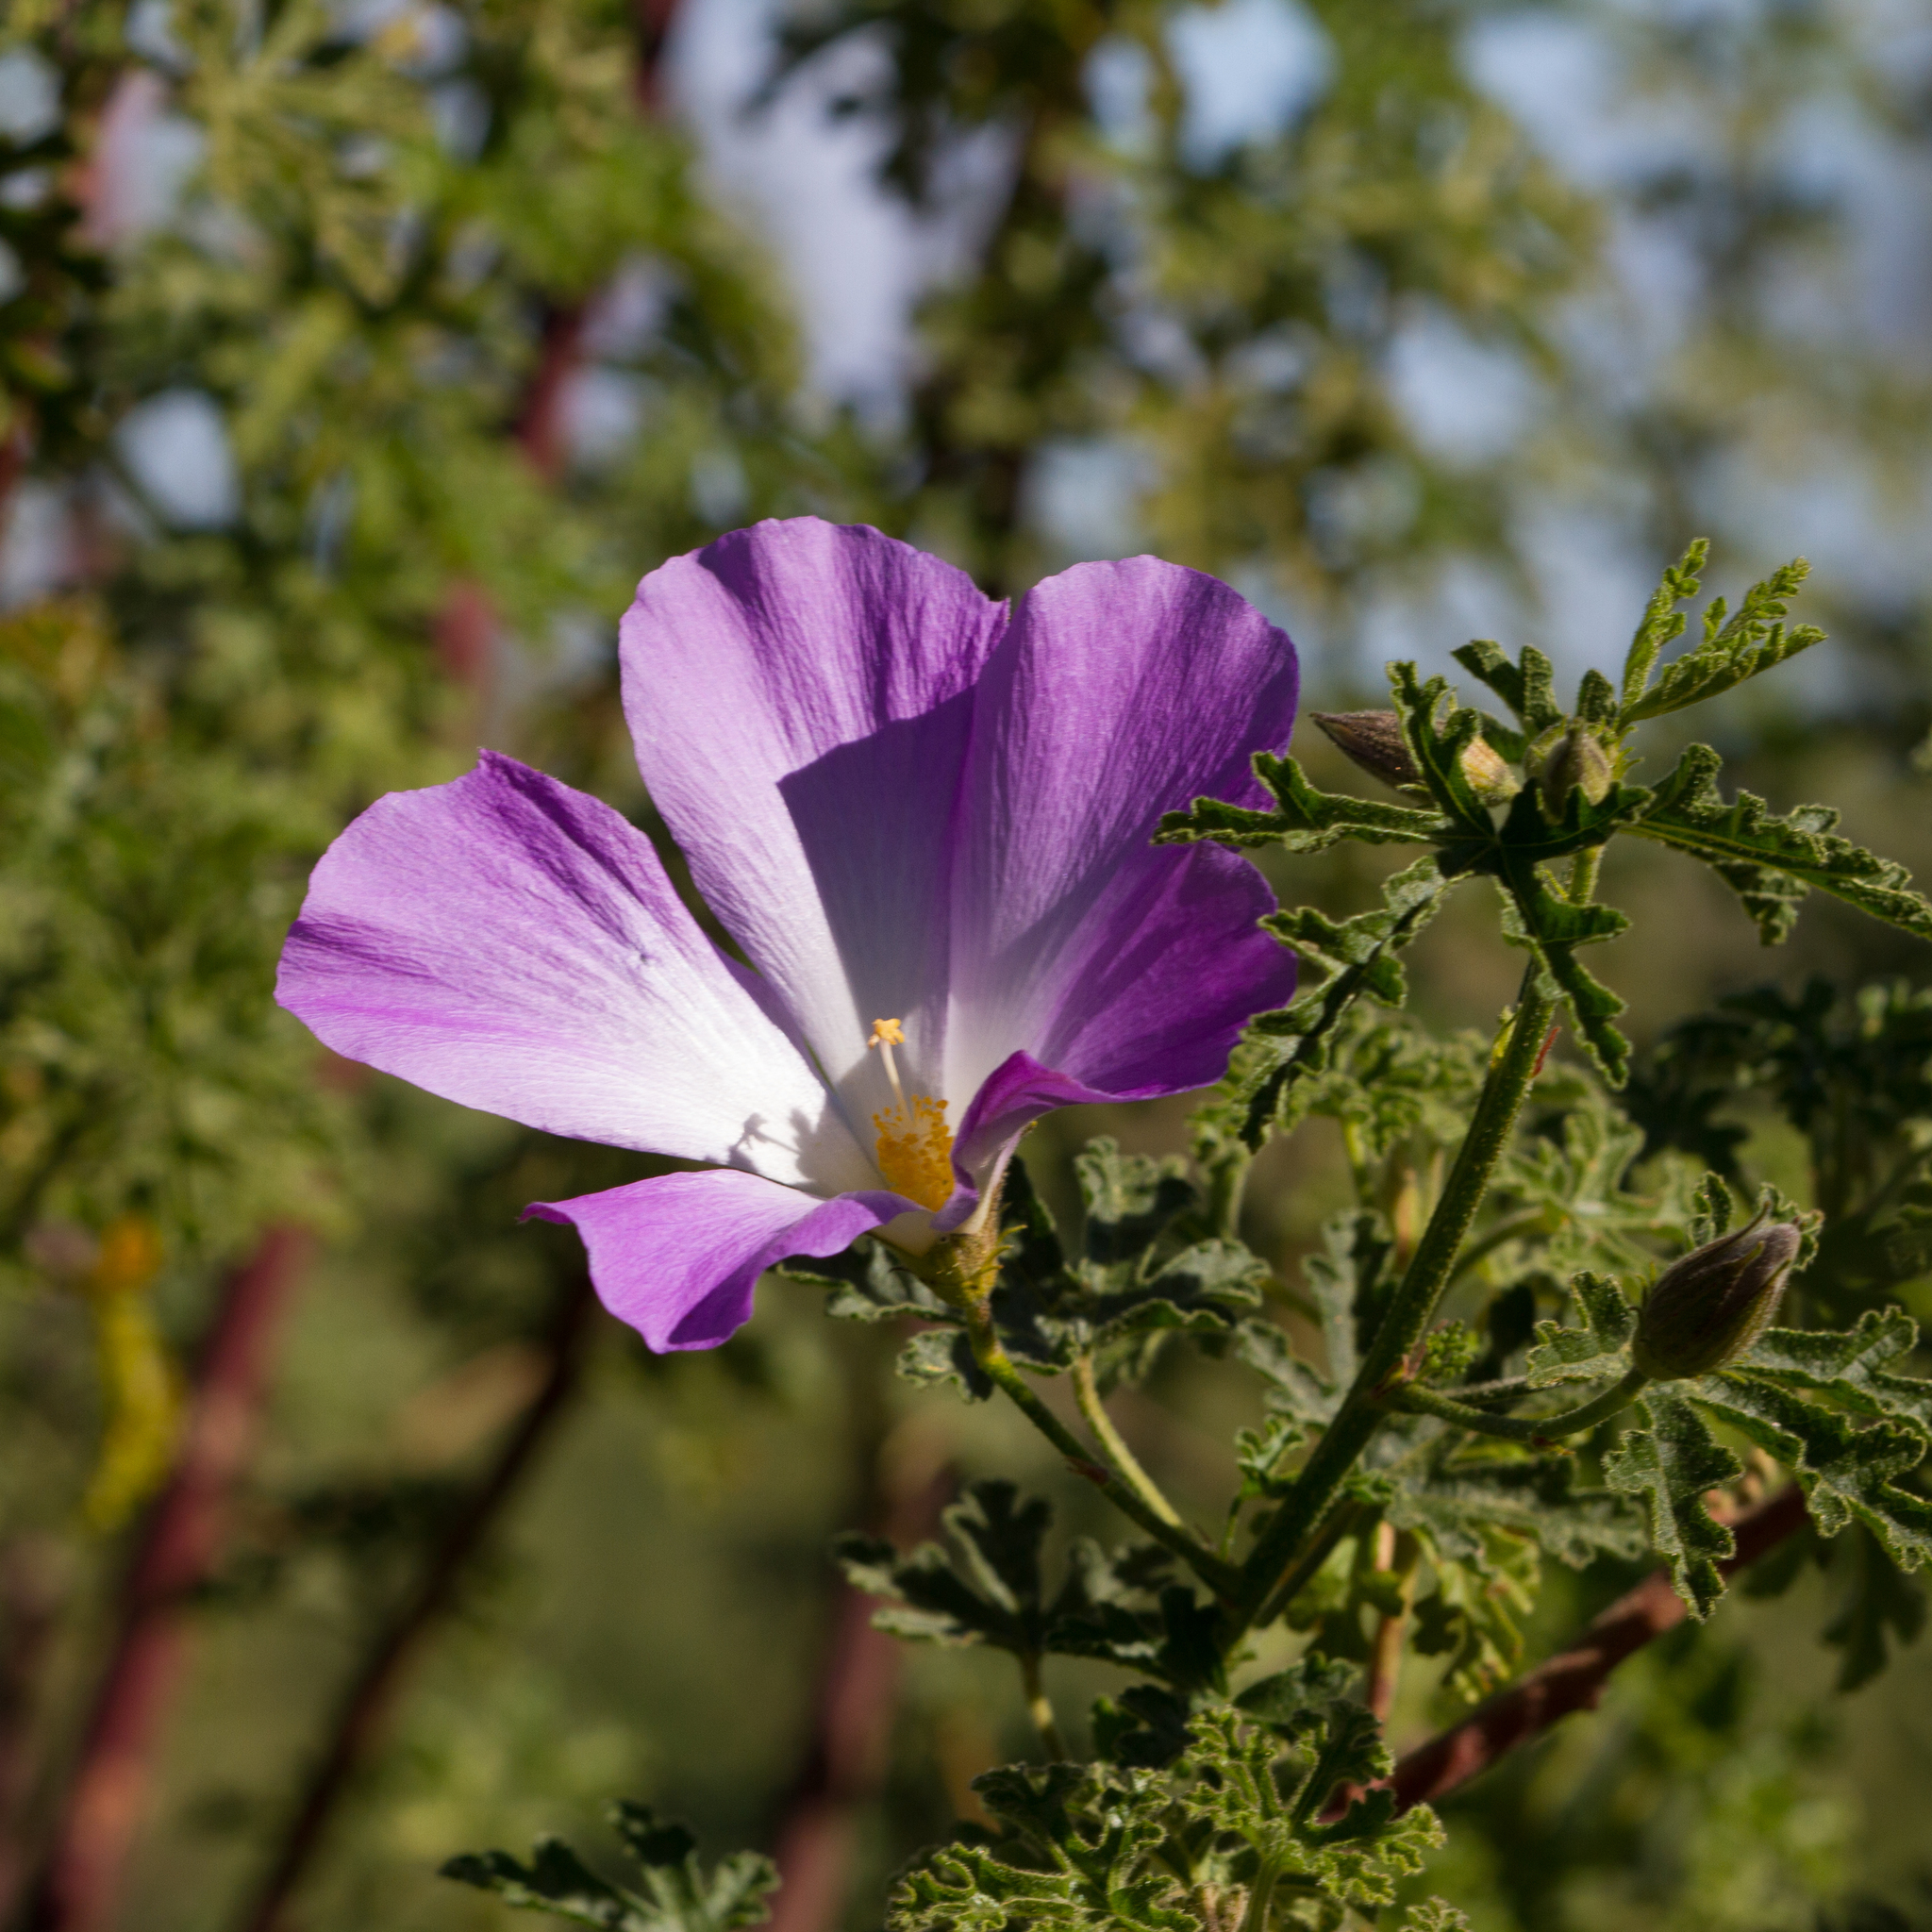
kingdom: Plantae
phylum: Tracheophyta
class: Magnoliopsida
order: Malvales
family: Malvaceae
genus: Hibiscus
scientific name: Hibiscus huegelii
